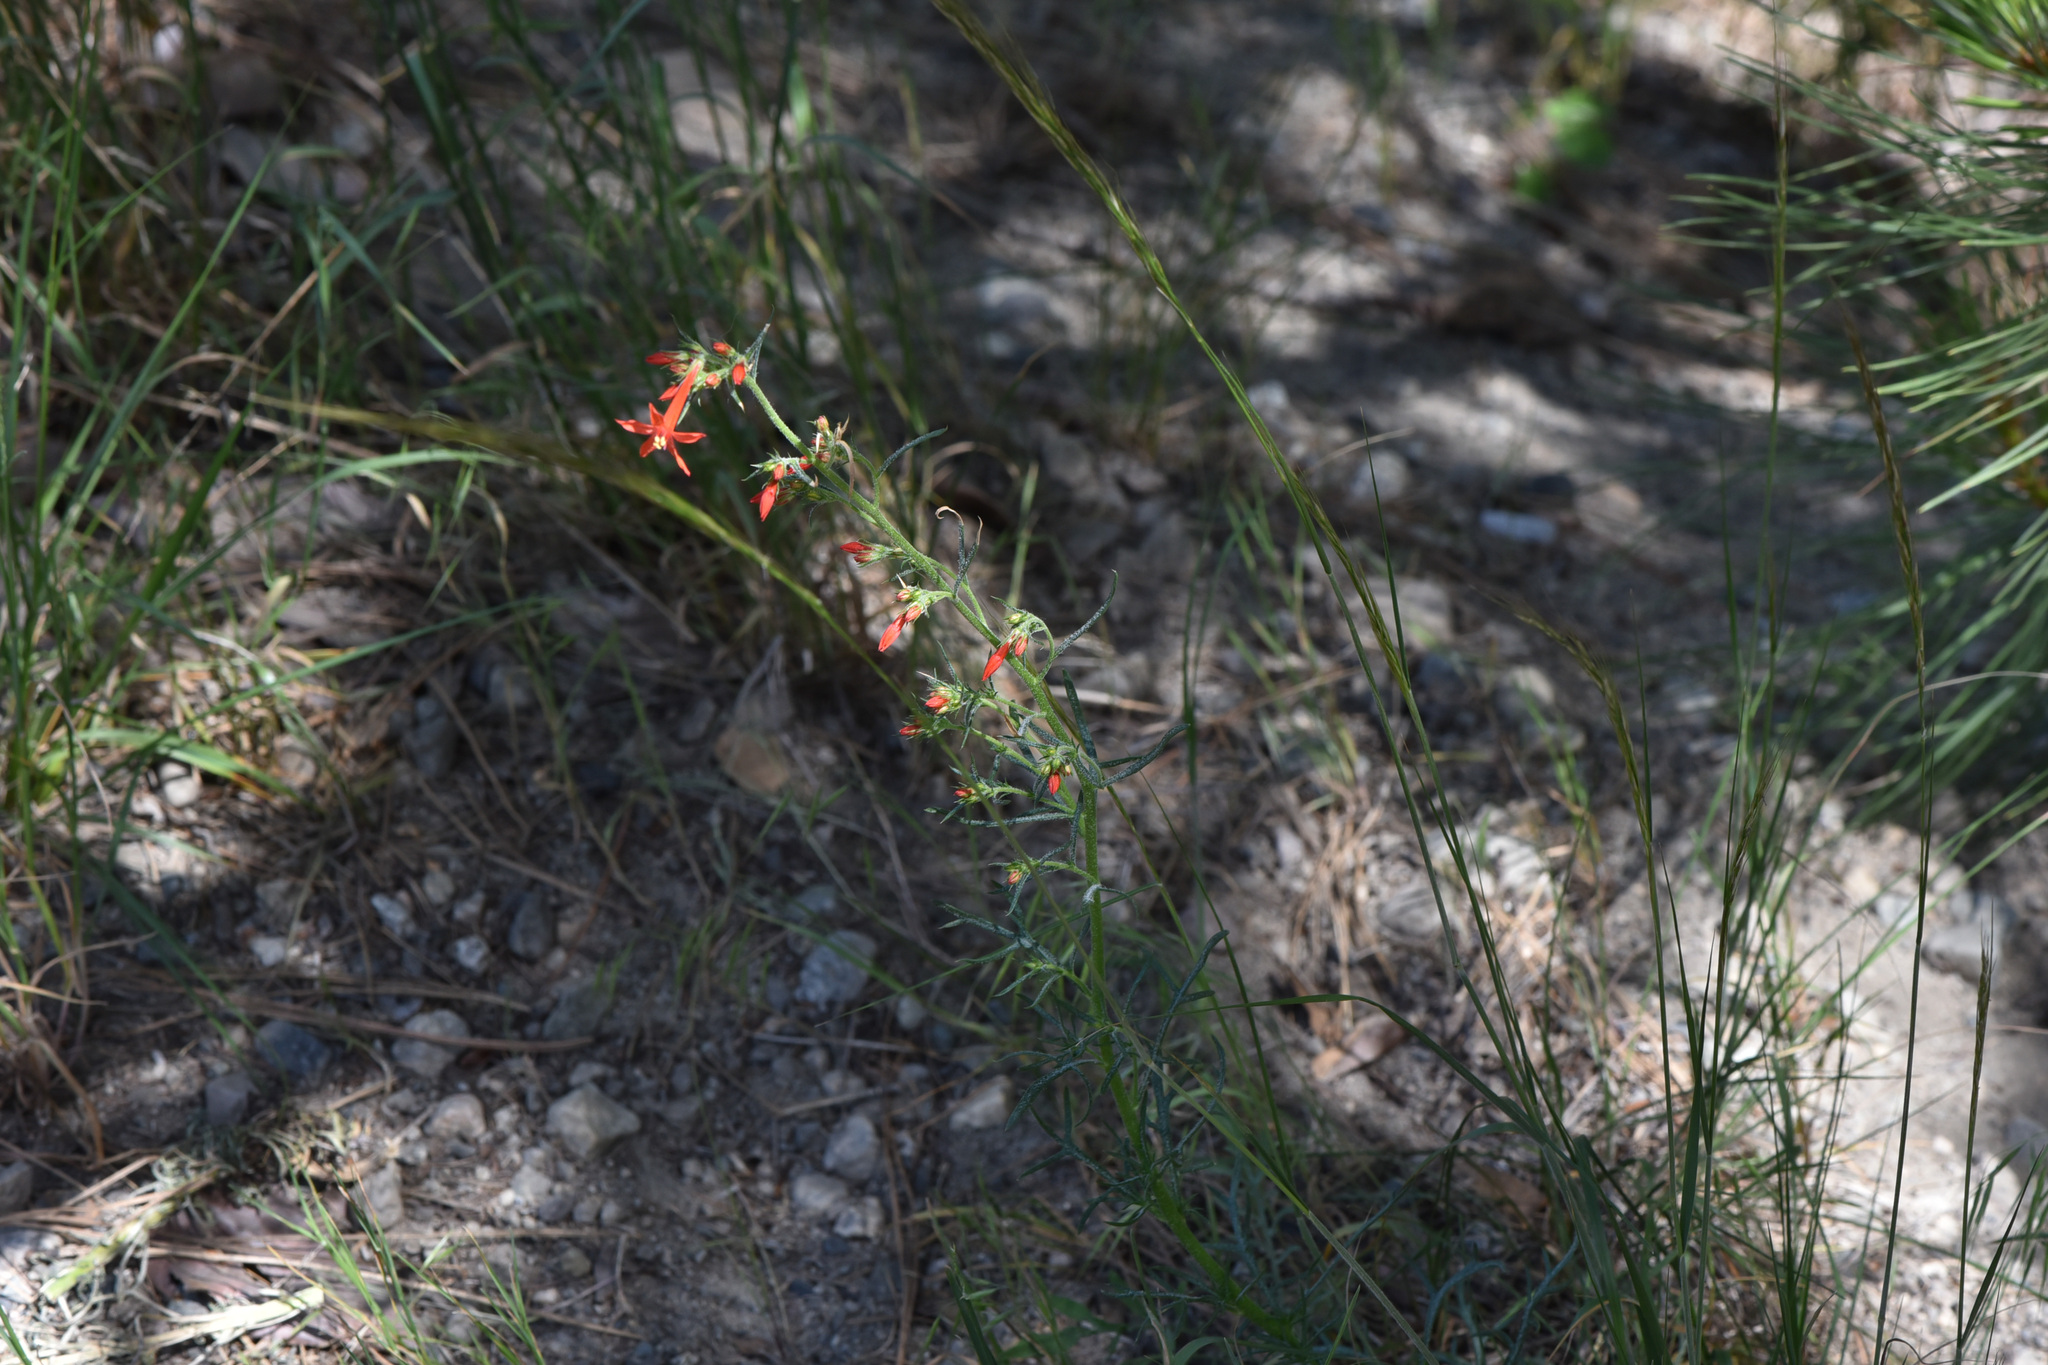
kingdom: Plantae
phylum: Tracheophyta
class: Magnoliopsida
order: Ericales
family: Polemoniaceae
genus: Ipomopsis
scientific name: Ipomopsis aggregata
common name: Scarlet gilia
